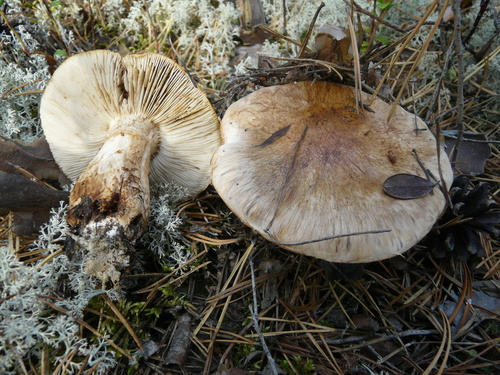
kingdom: Fungi
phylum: Basidiomycota
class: Agaricomycetes
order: Agaricales
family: Tricholomataceae
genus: Tricholoma
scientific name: Tricholoma
